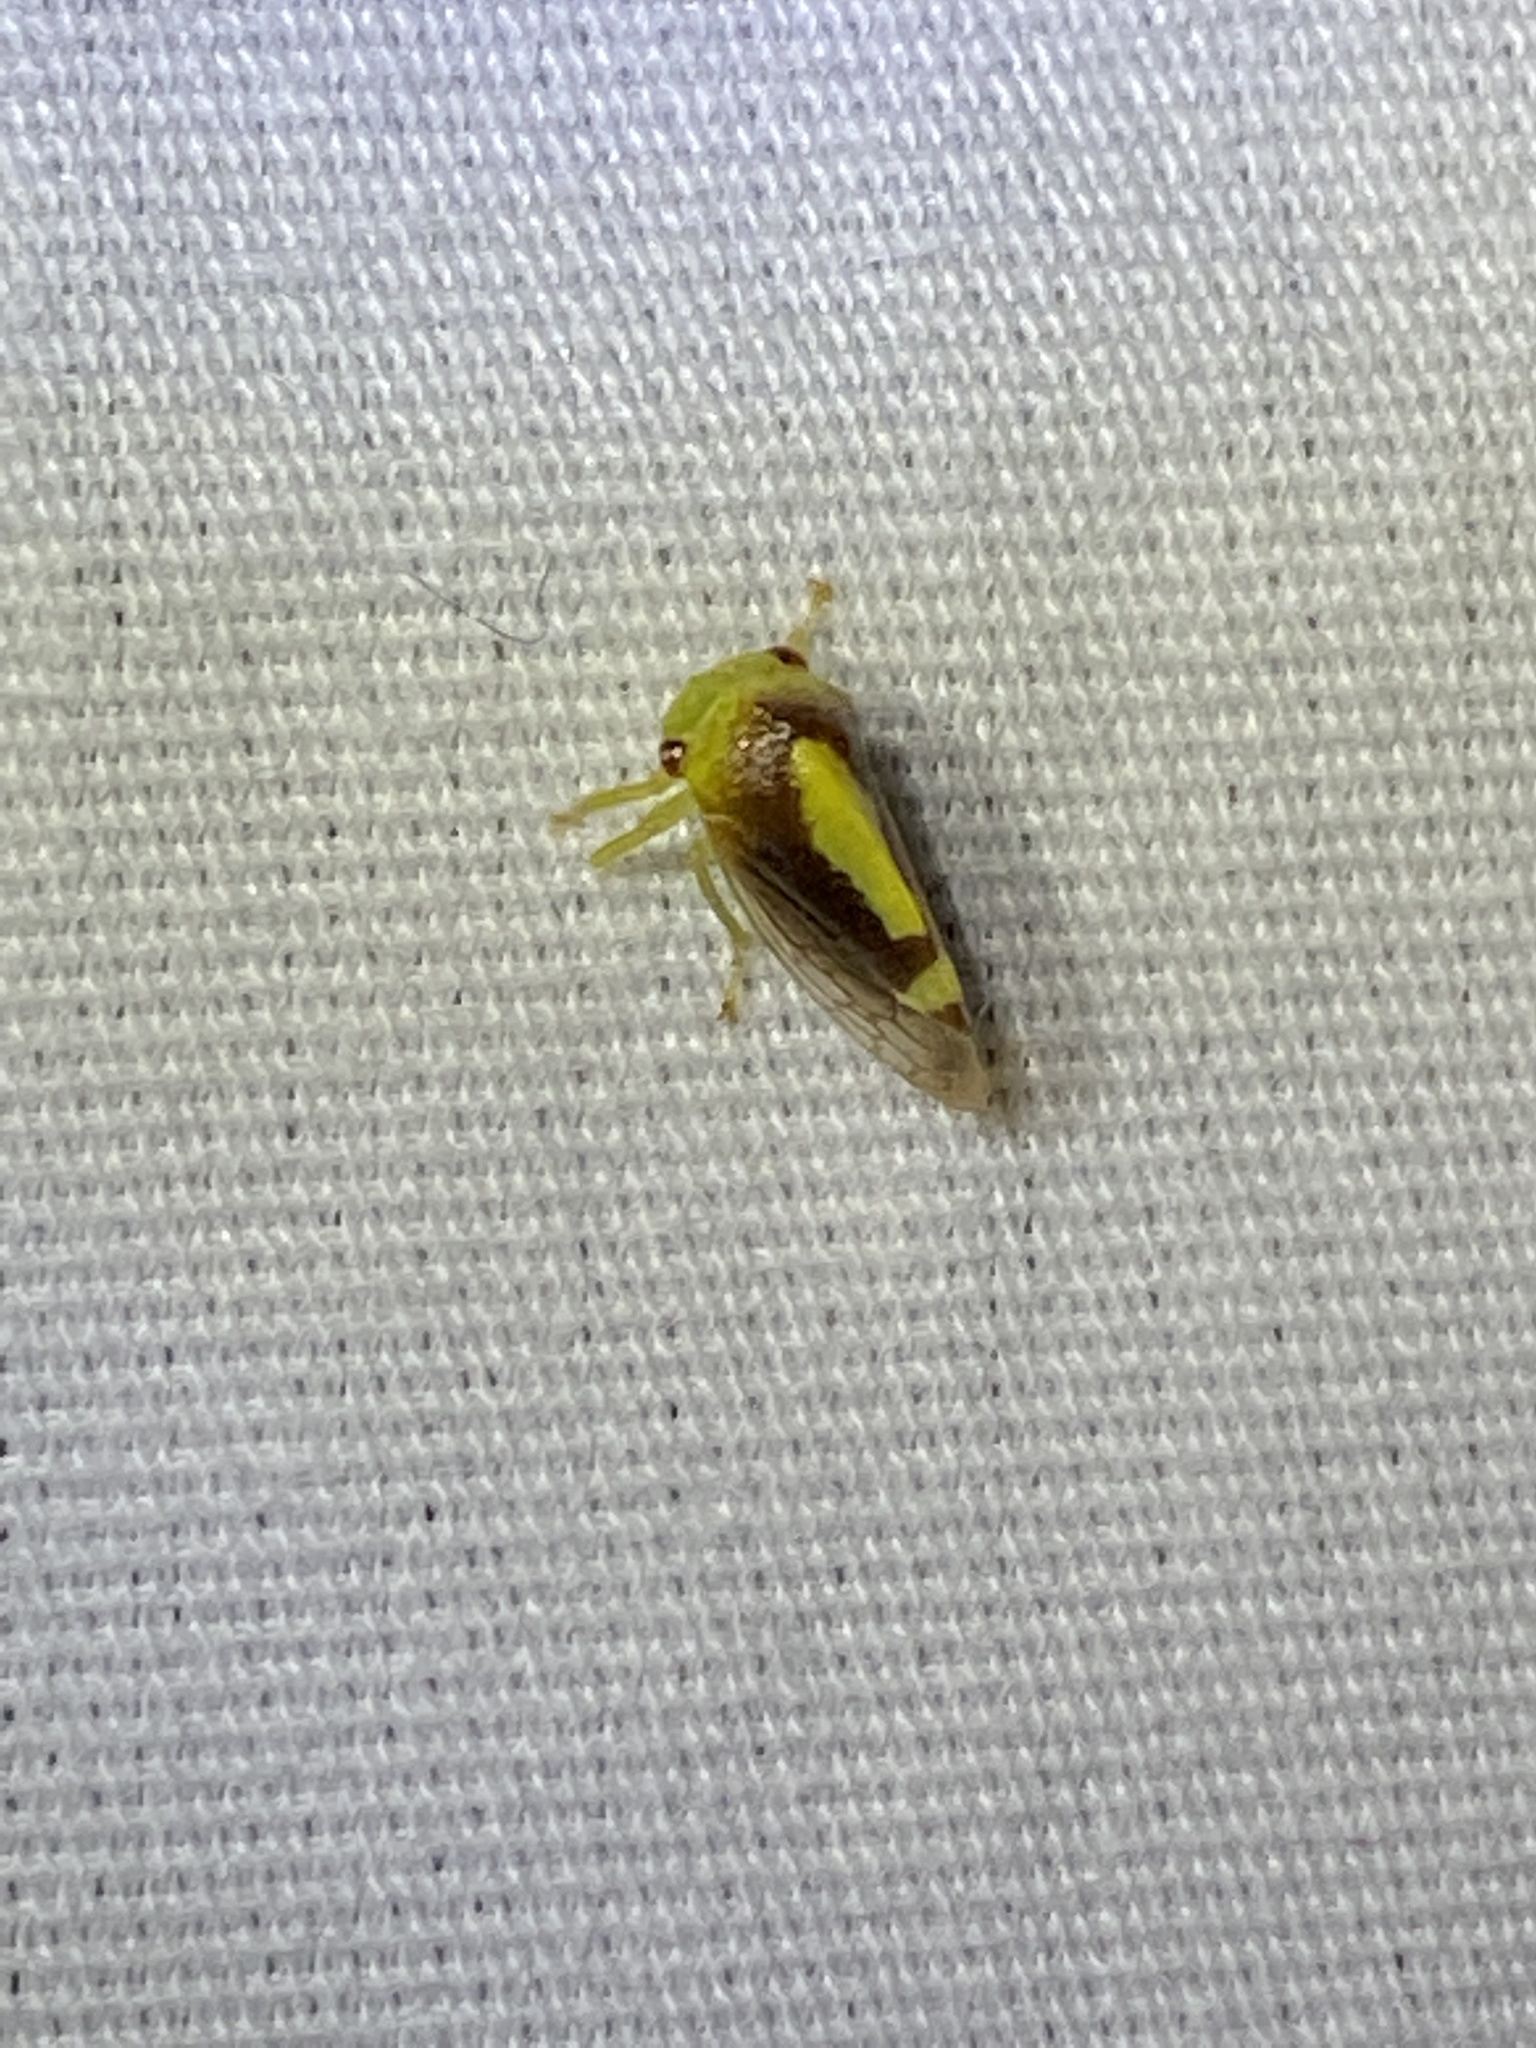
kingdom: Animalia
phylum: Arthropoda
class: Insecta
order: Hemiptera
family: Membracidae
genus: Atymna
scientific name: Atymna querci
